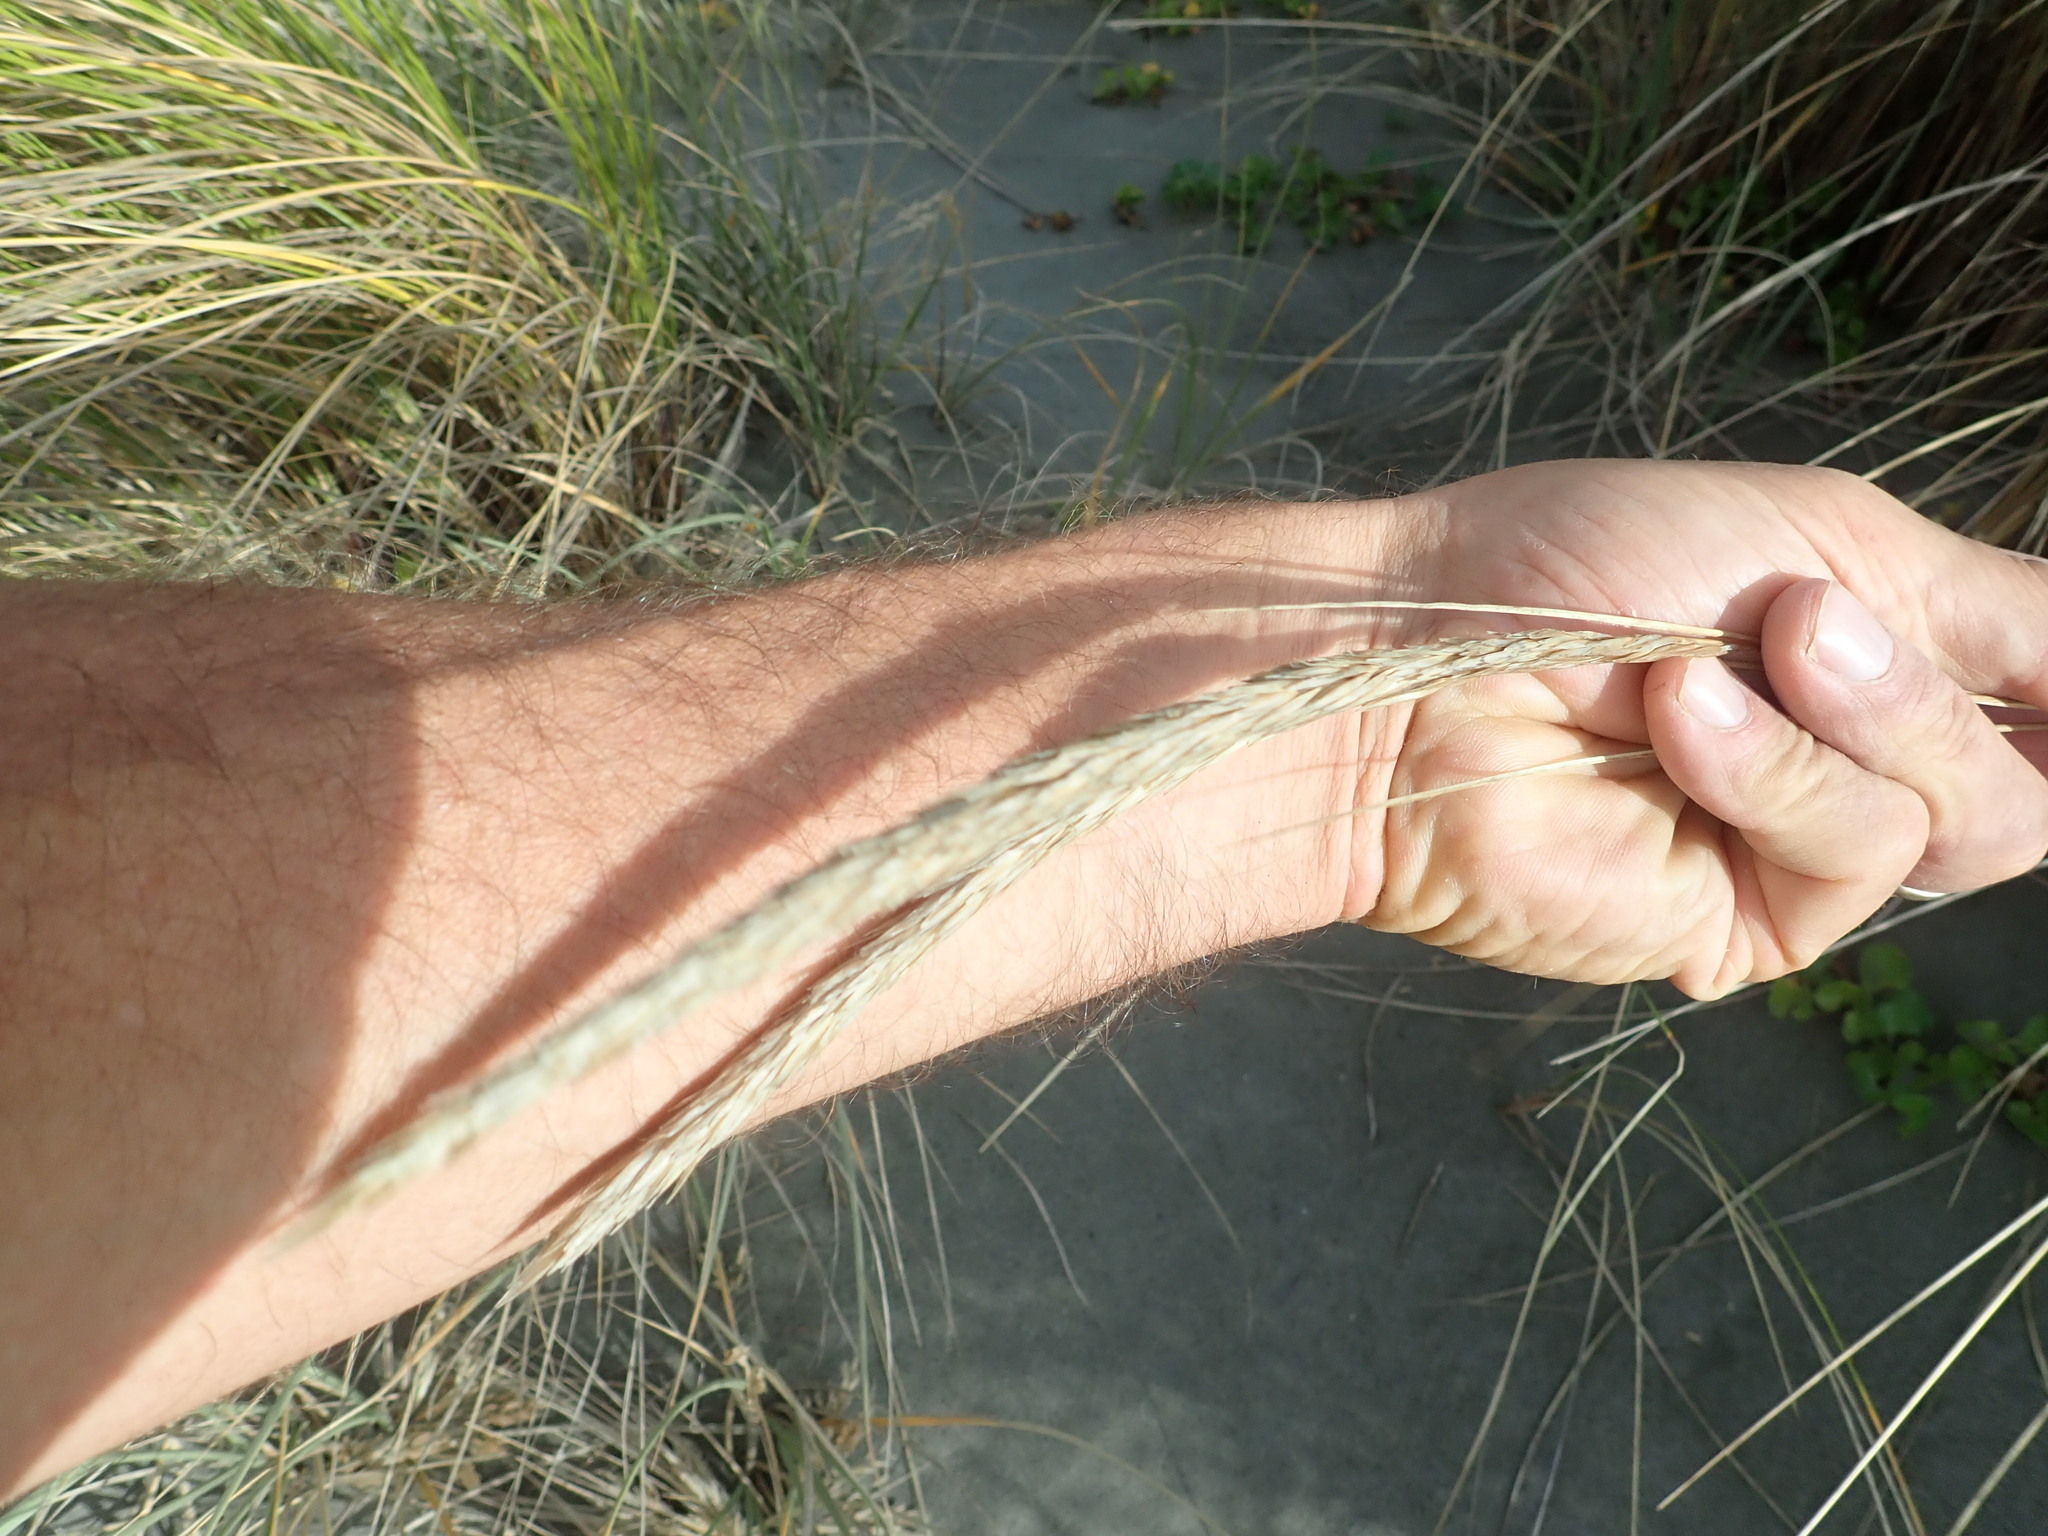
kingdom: Plantae
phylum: Tracheophyta
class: Liliopsida
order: Poales
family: Poaceae
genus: Calamagrostis
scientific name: Calamagrostis arenaria
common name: European beachgrass
